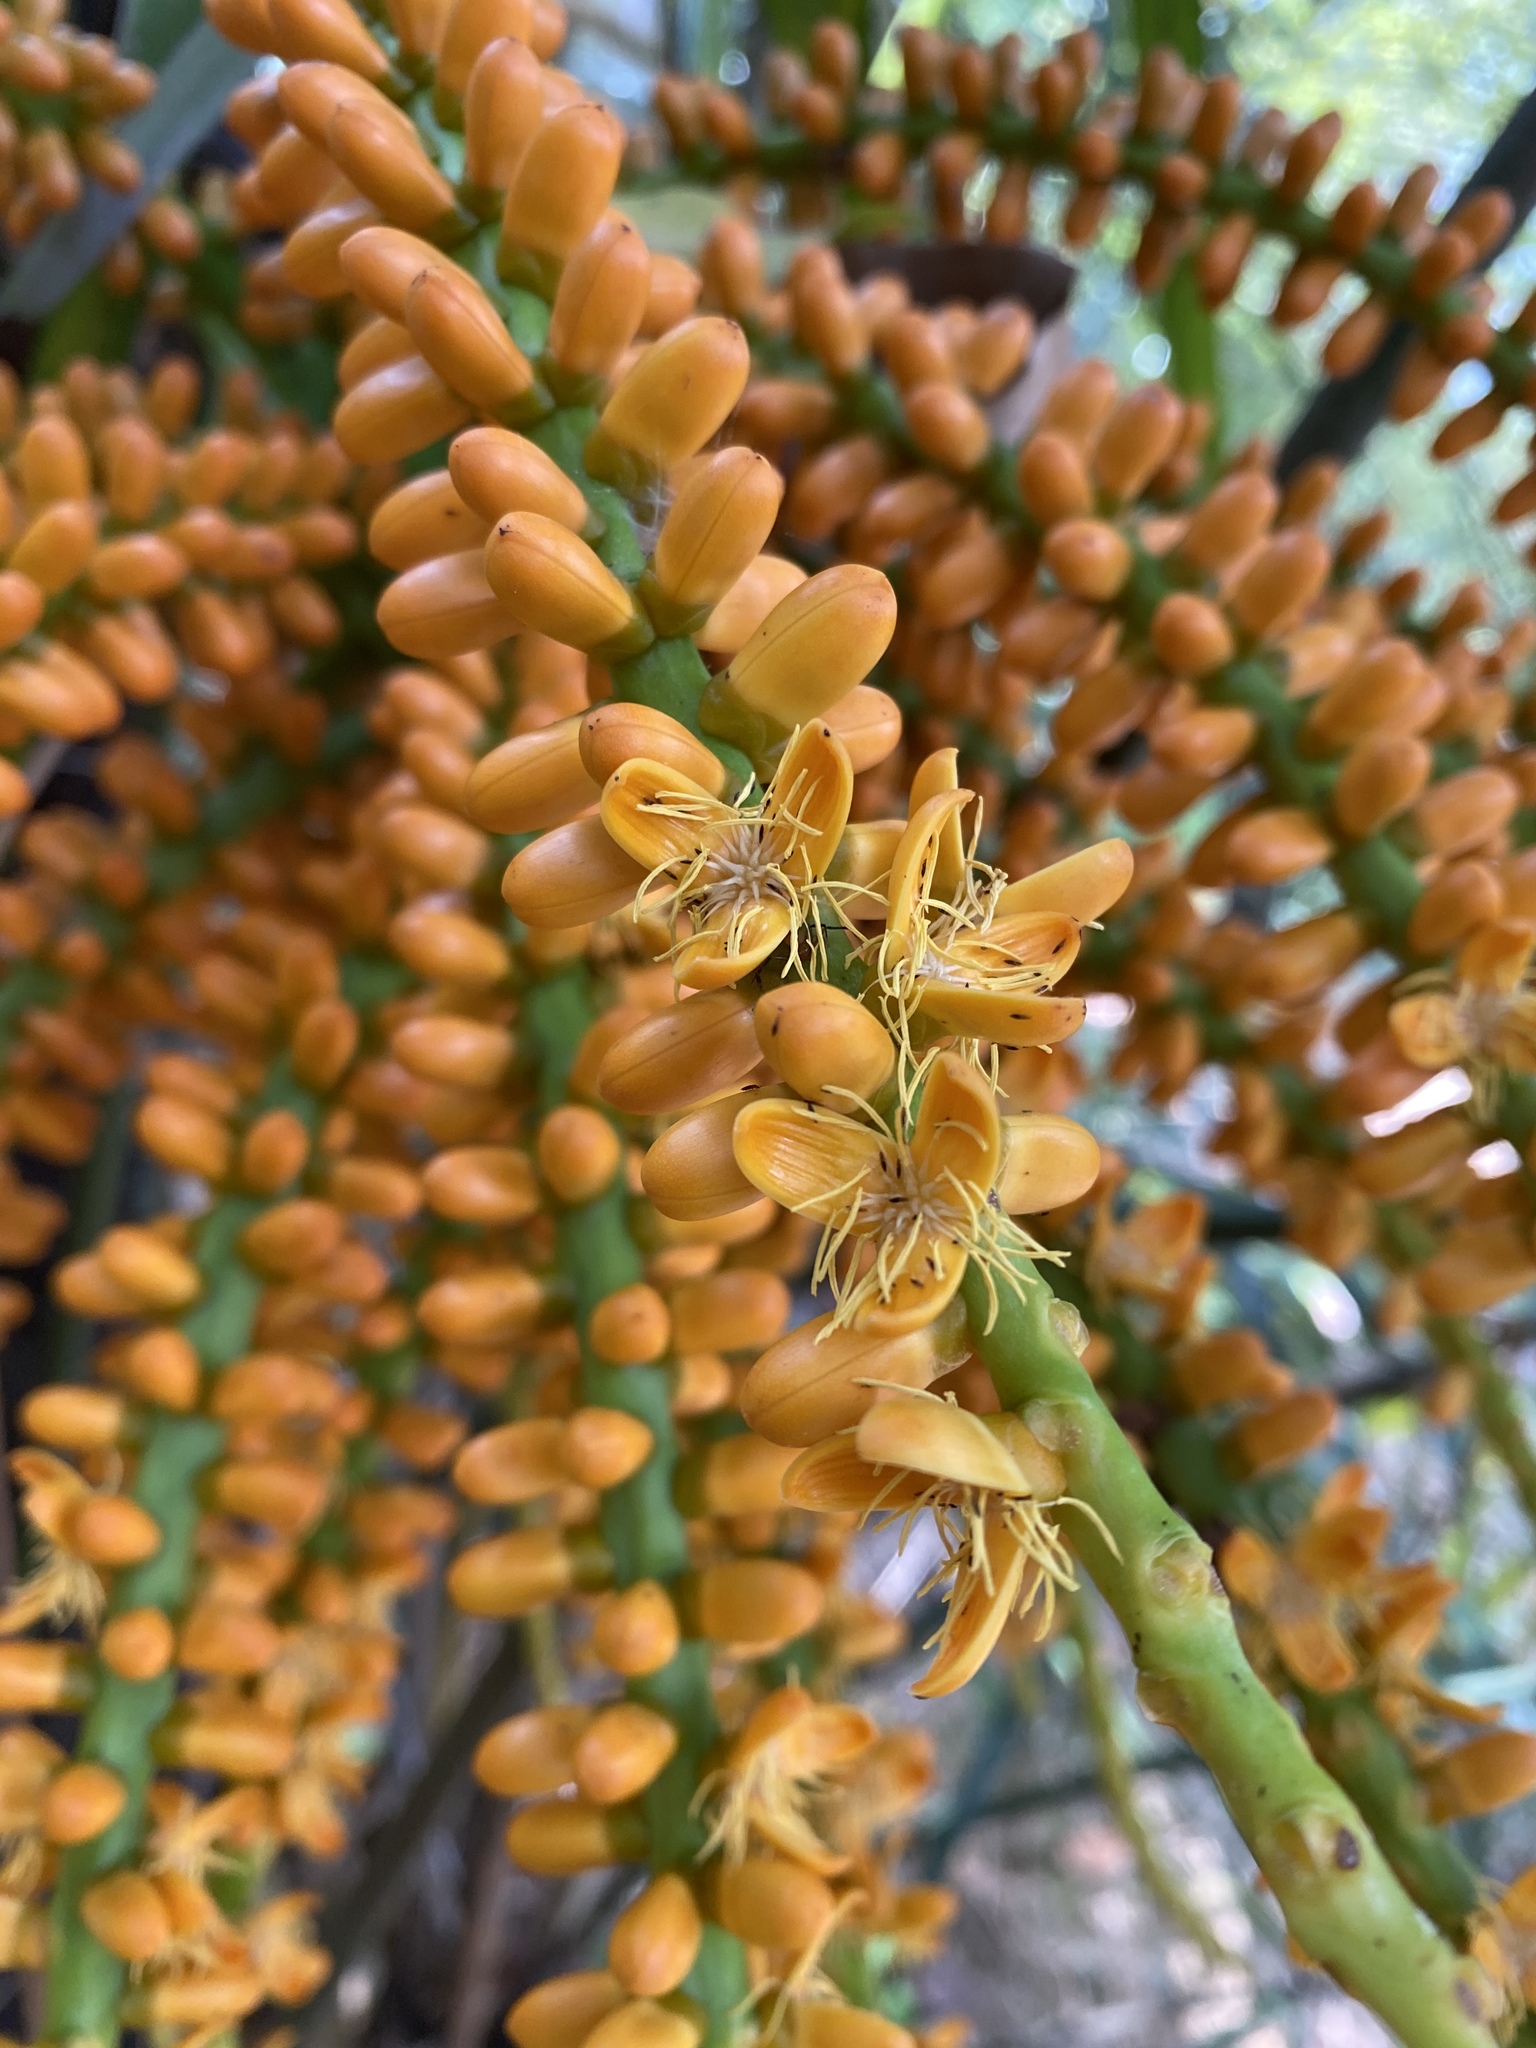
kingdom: Plantae
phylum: Tracheophyta
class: Liliopsida
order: Arecales
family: Arecaceae
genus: Arenga
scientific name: Arenga engleri
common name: Formosan sugar palm
